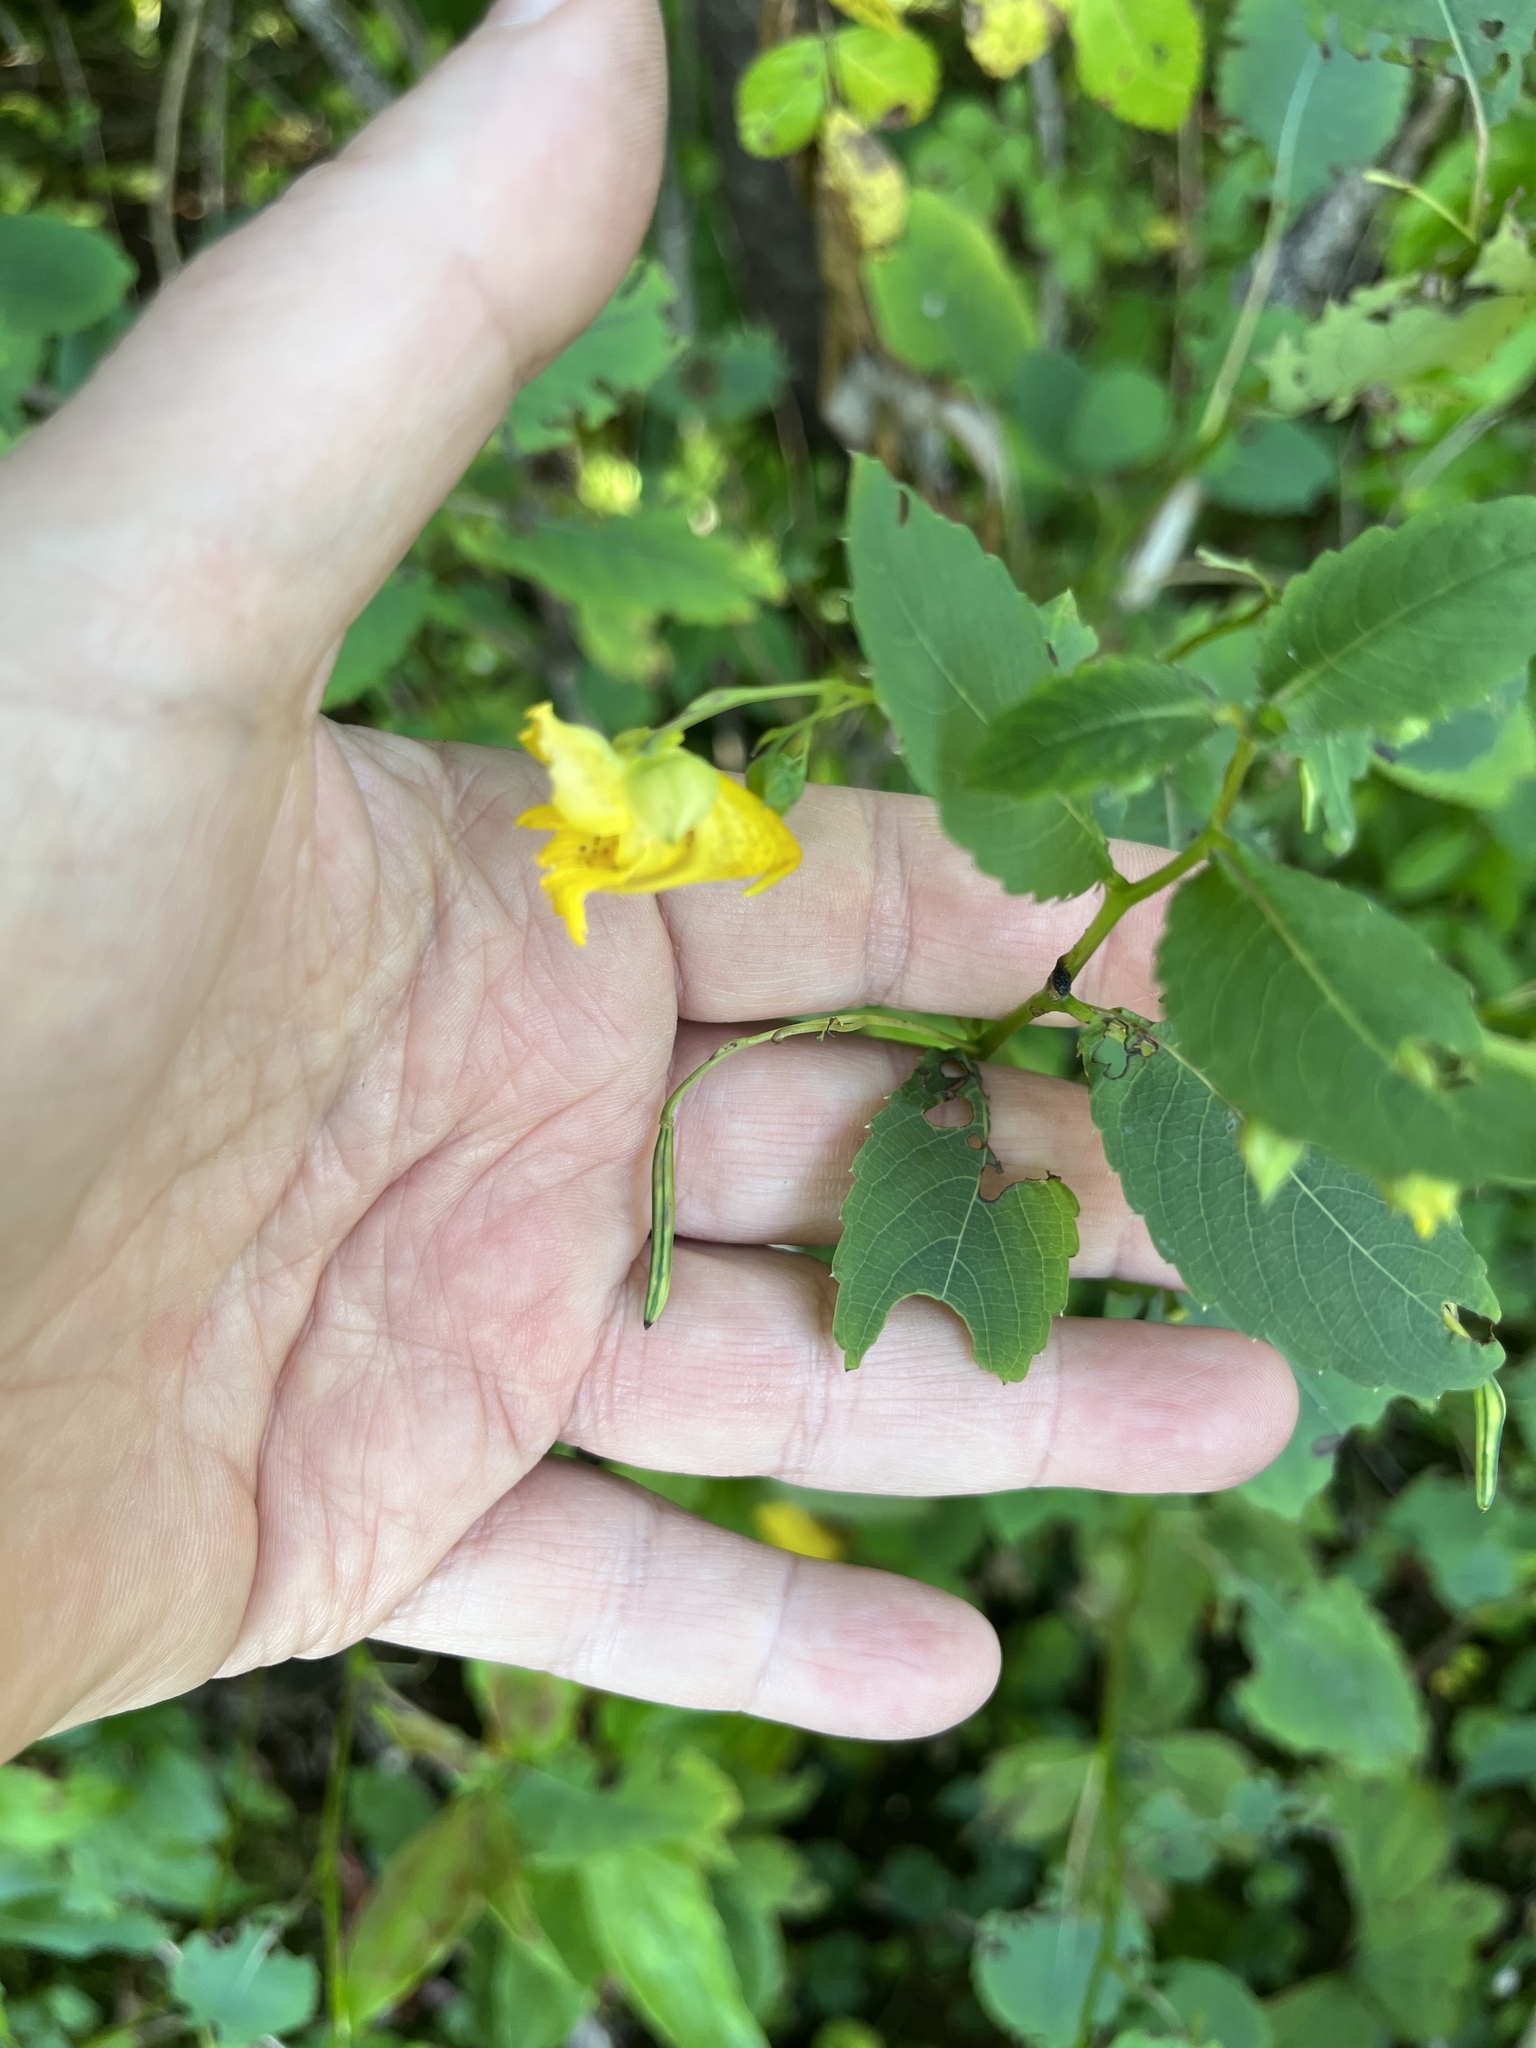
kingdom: Plantae
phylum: Tracheophyta
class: Magnoliopsida
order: Ericales
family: Balsaminaceae
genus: Impatiens
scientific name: Impatiens pallida
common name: Pale snapweed
